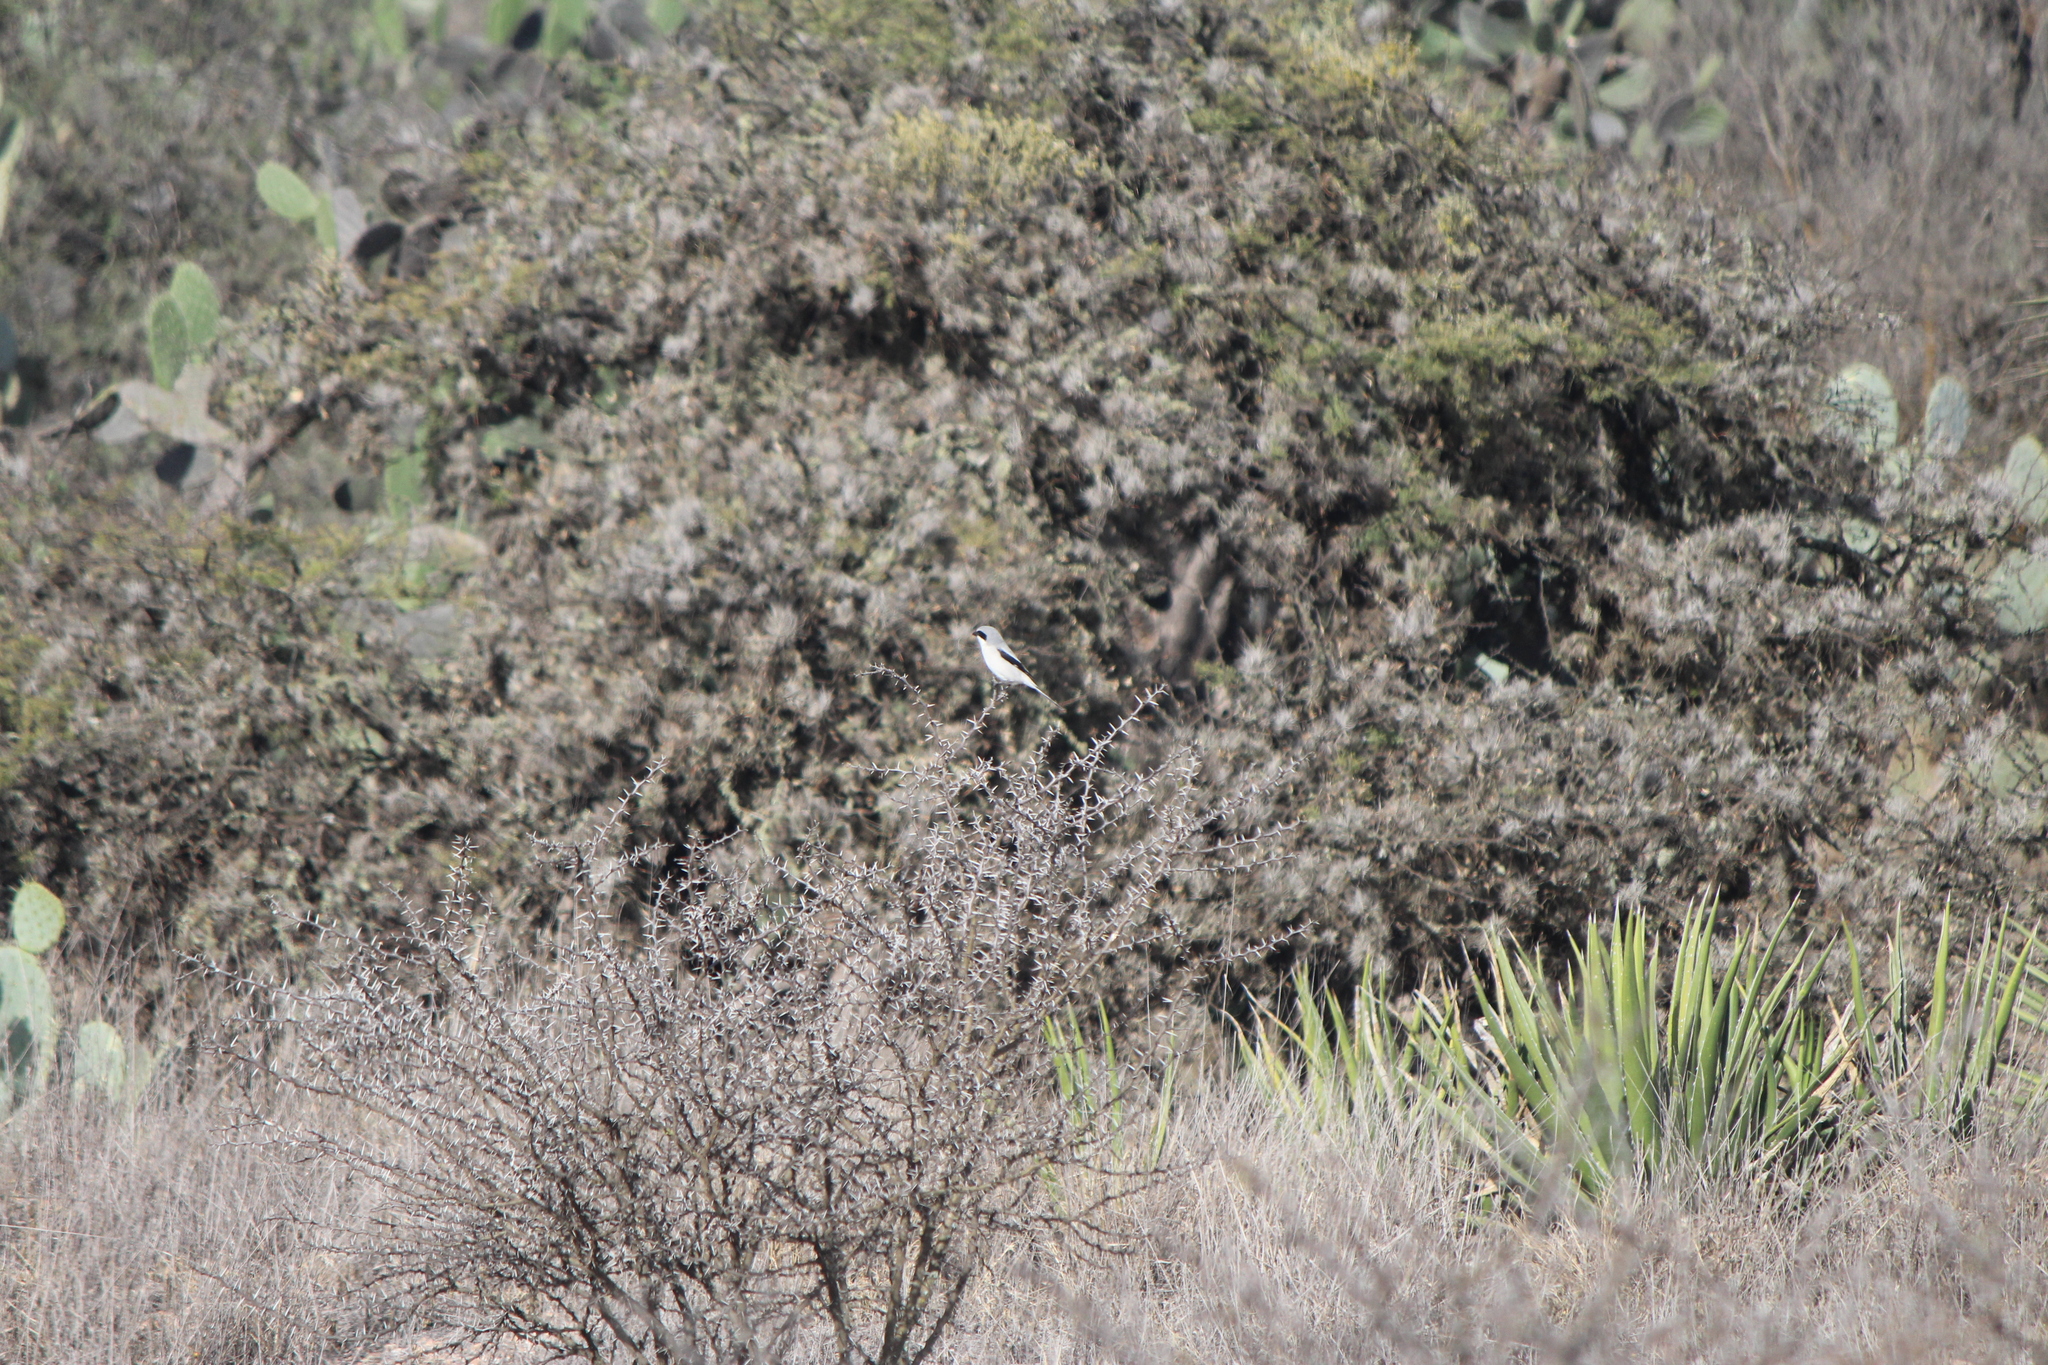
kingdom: Animalia
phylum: Chordata
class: Aves
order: Passeriformes
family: Laniidae
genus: Lanius
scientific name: Lanius ludovicianus
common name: Loggerhead shrike
